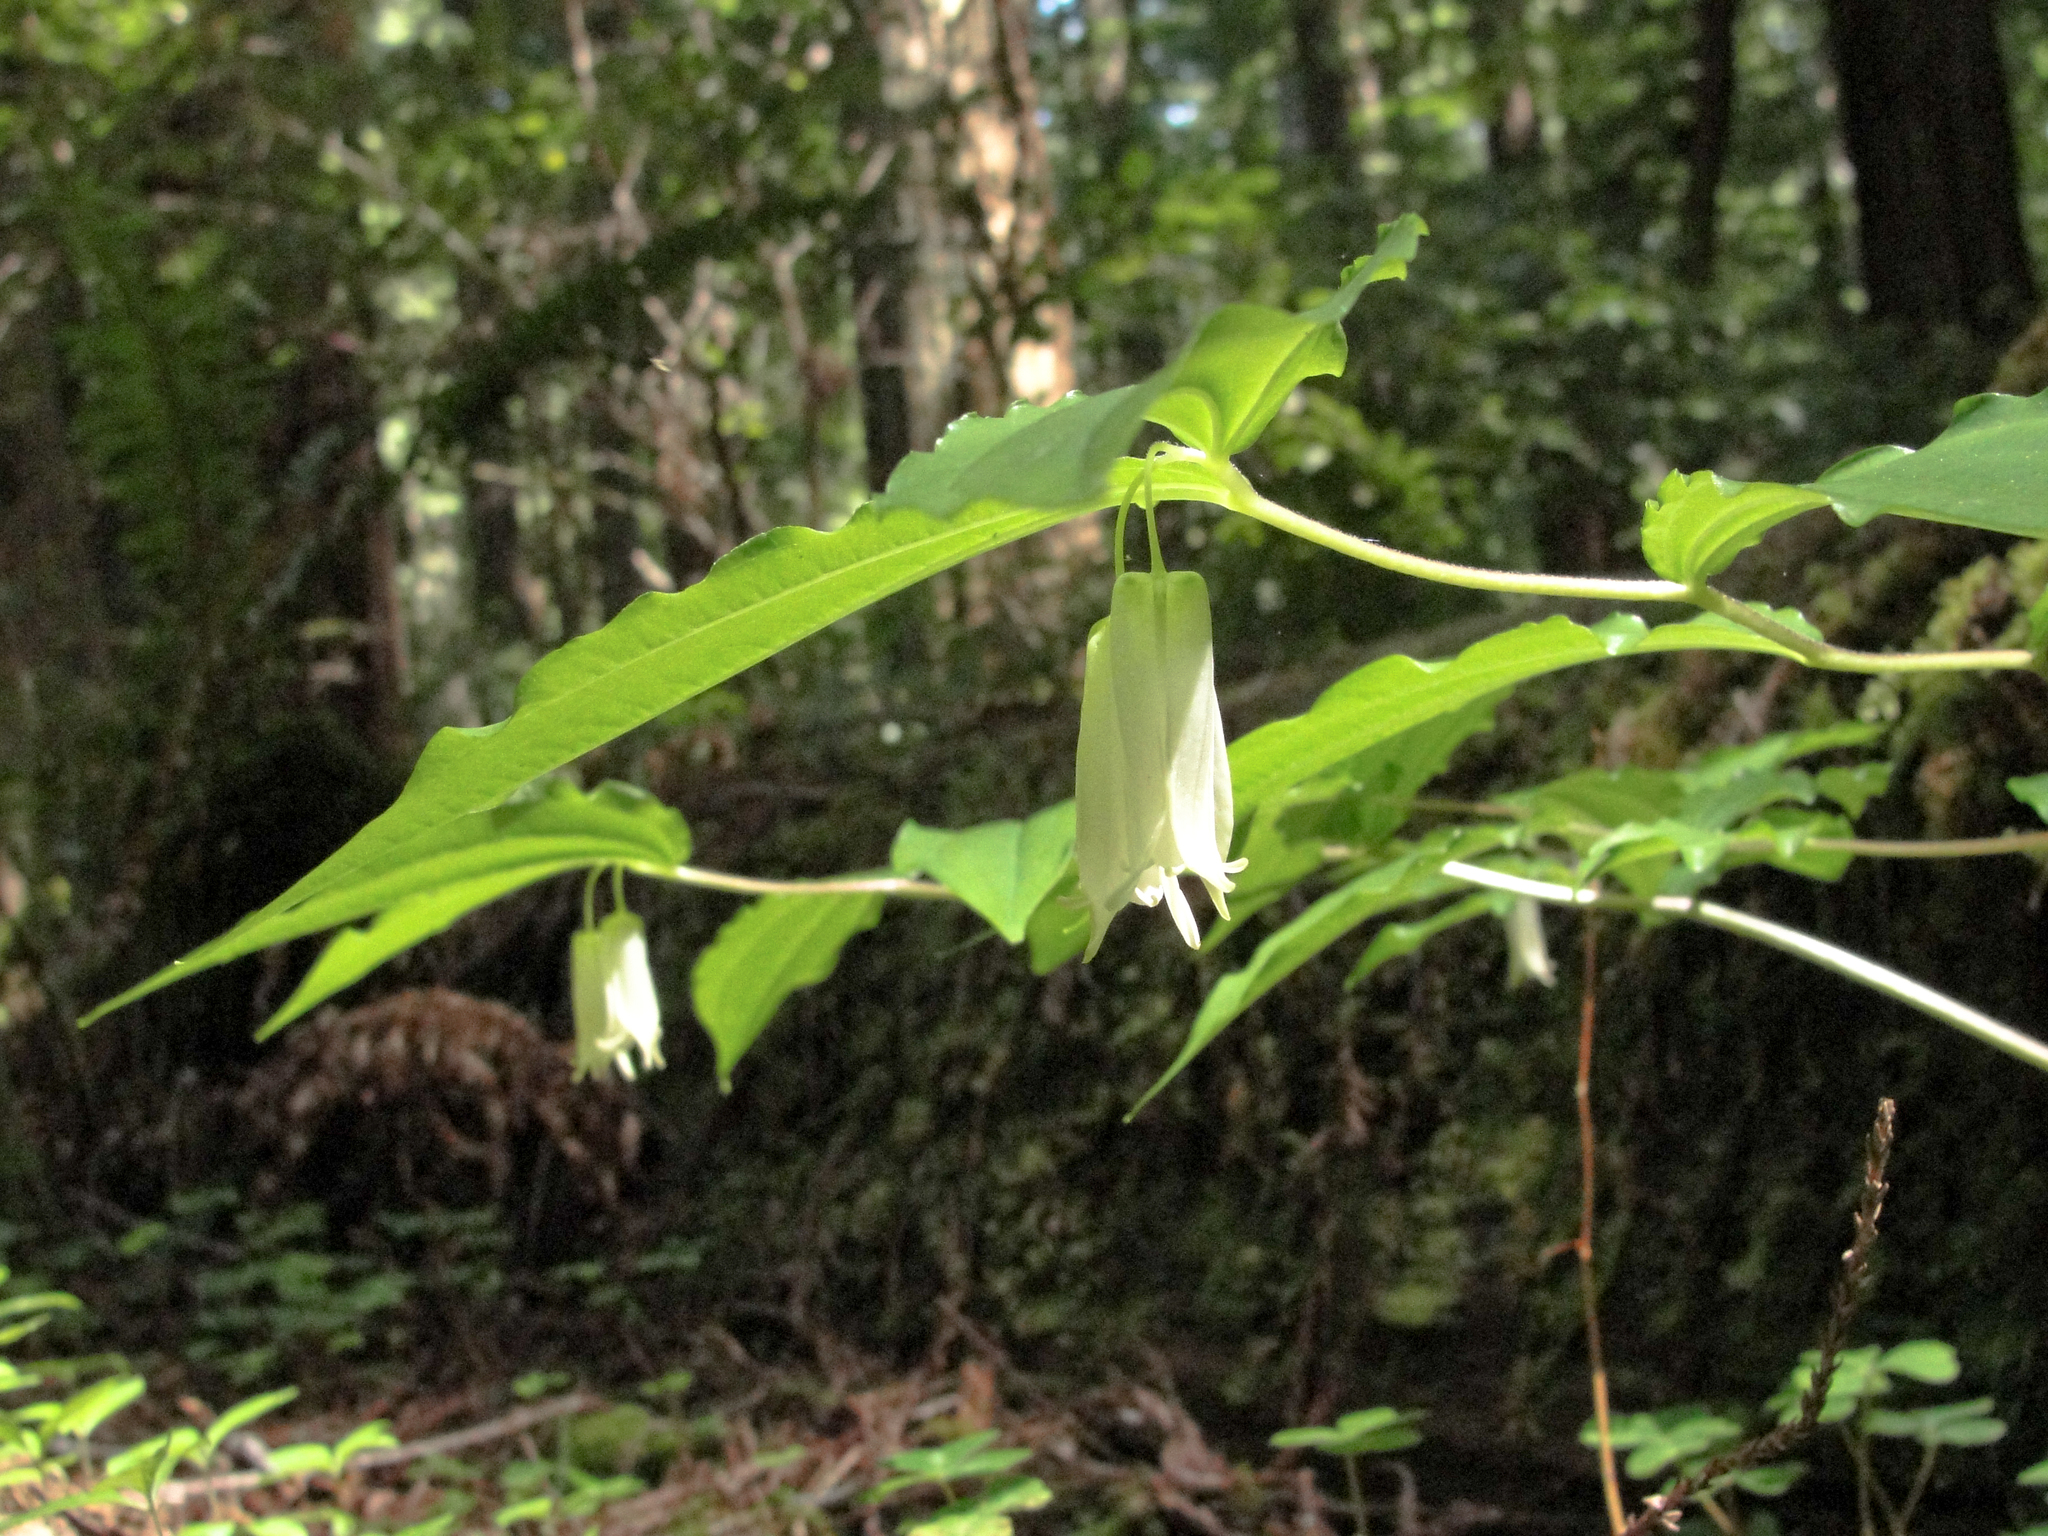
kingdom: Plantae
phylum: Tracheophyta
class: Liliopsida
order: Liliales
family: Liliaceae
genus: Prosartes
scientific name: Prosartes smithii
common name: Fairy-lantern
